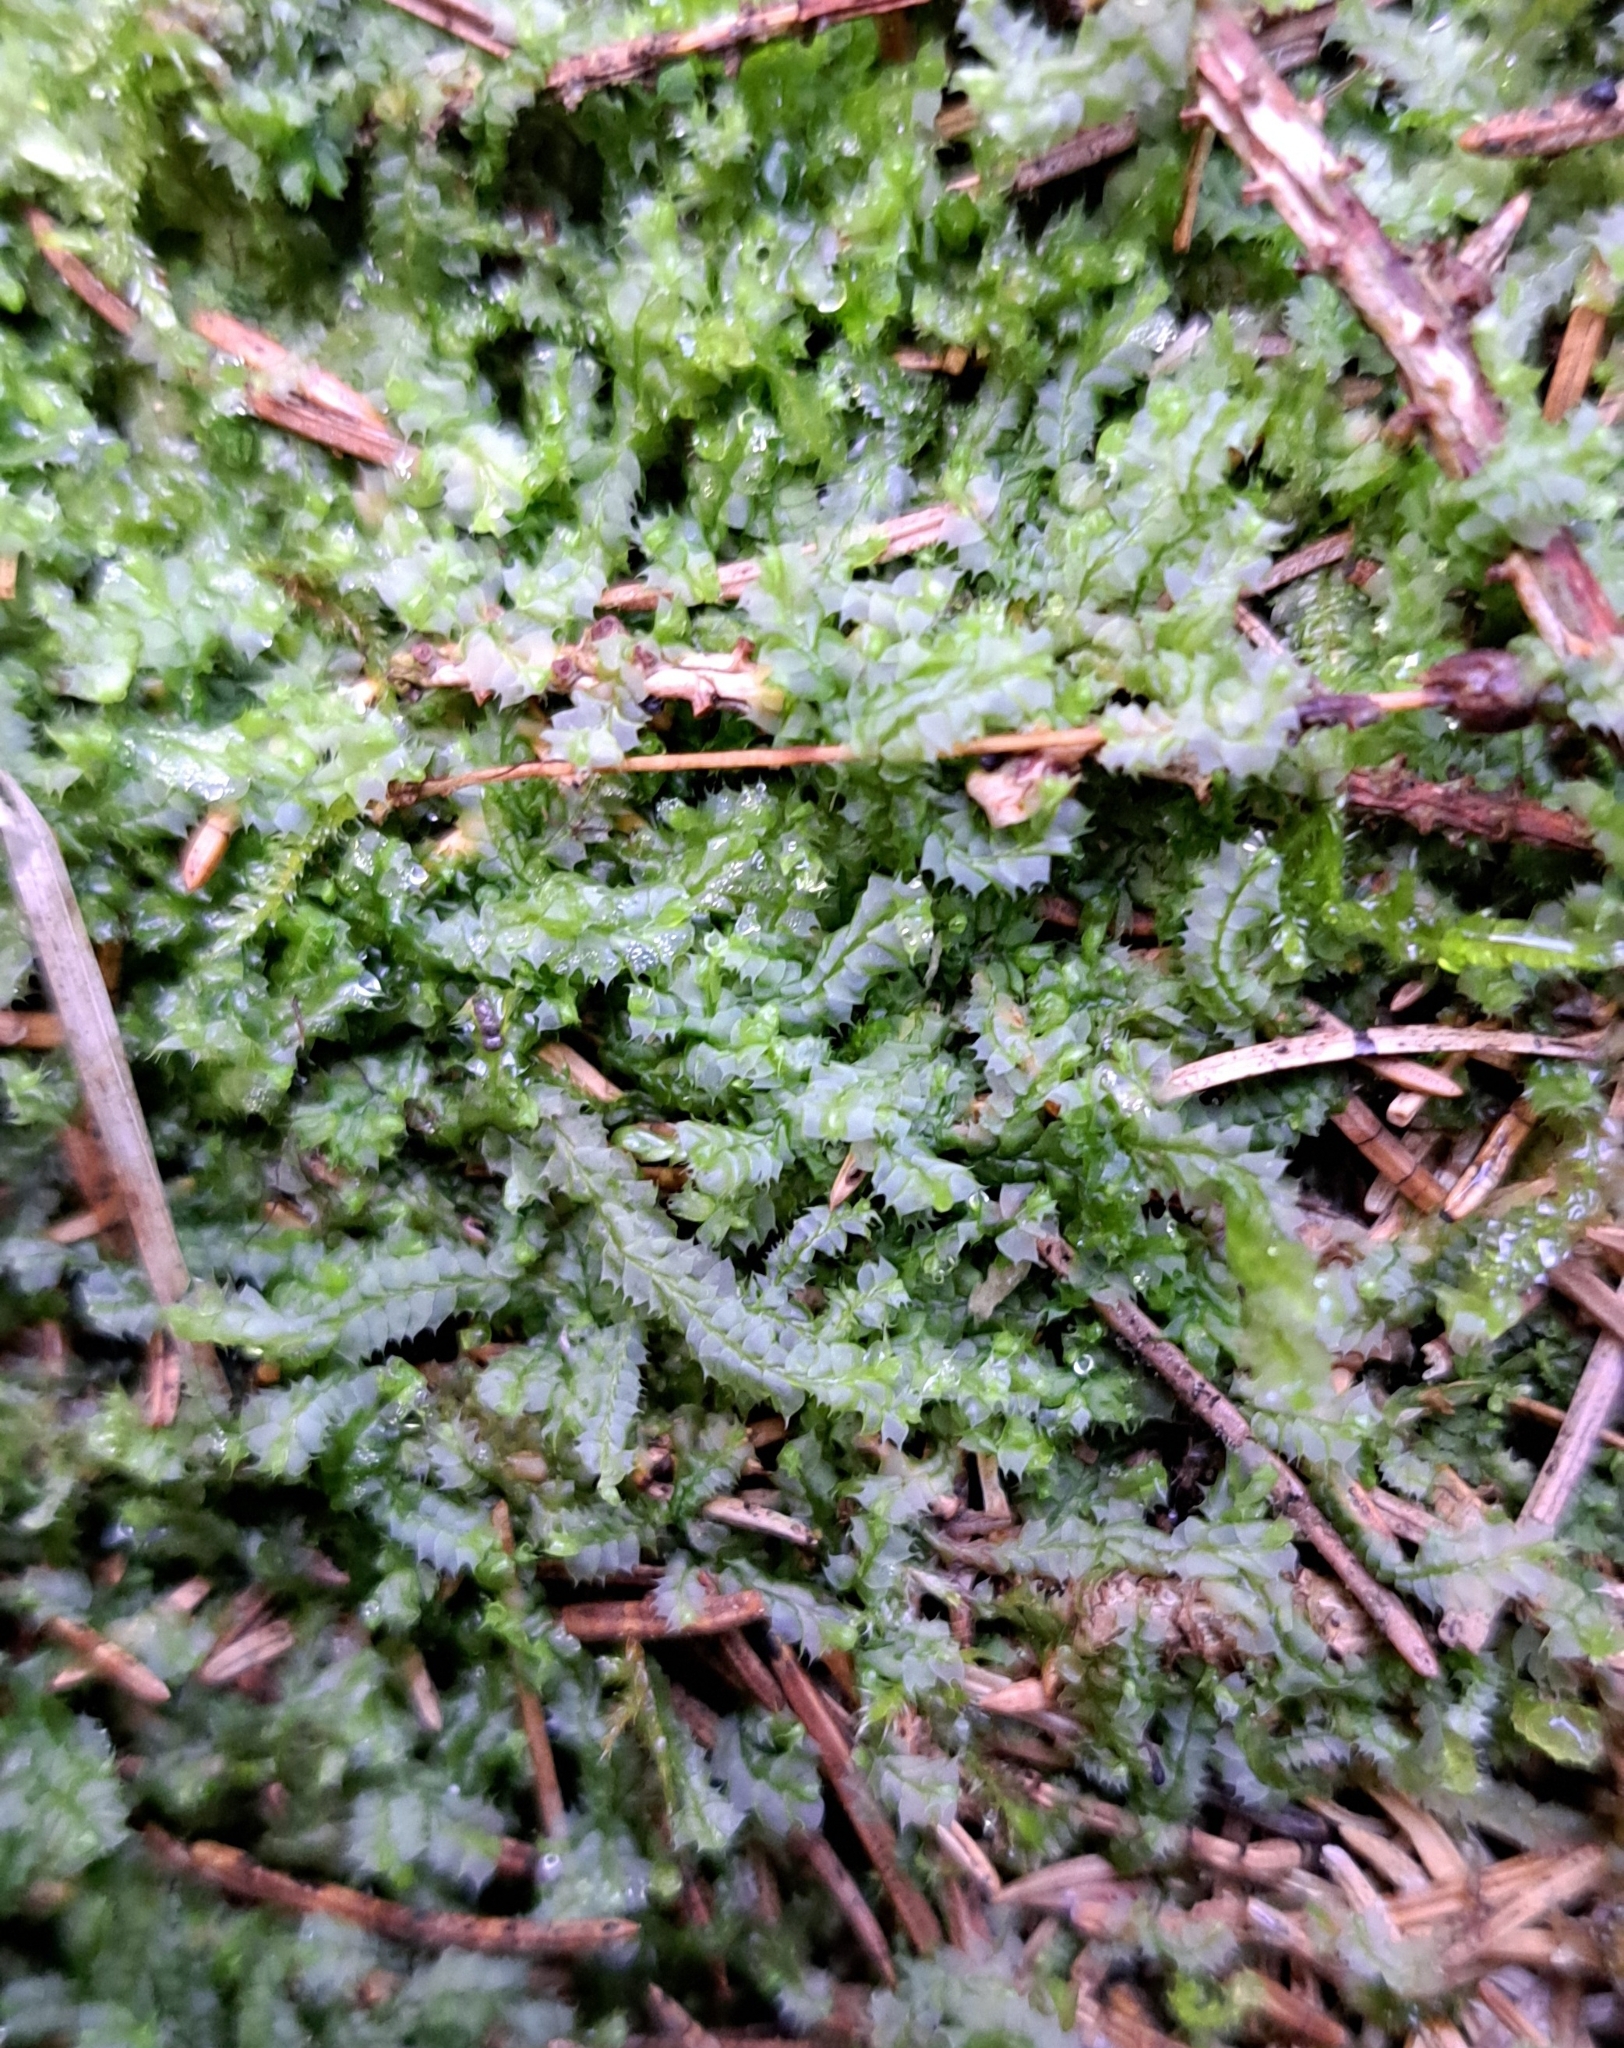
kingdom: Plantae
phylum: Marchantiophyta
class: Jungermanniopsida
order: Jungermanniales
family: Lophocoleaceae
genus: Lophocolea
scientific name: Lophocolea bidentata
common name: Bifid crestwort
